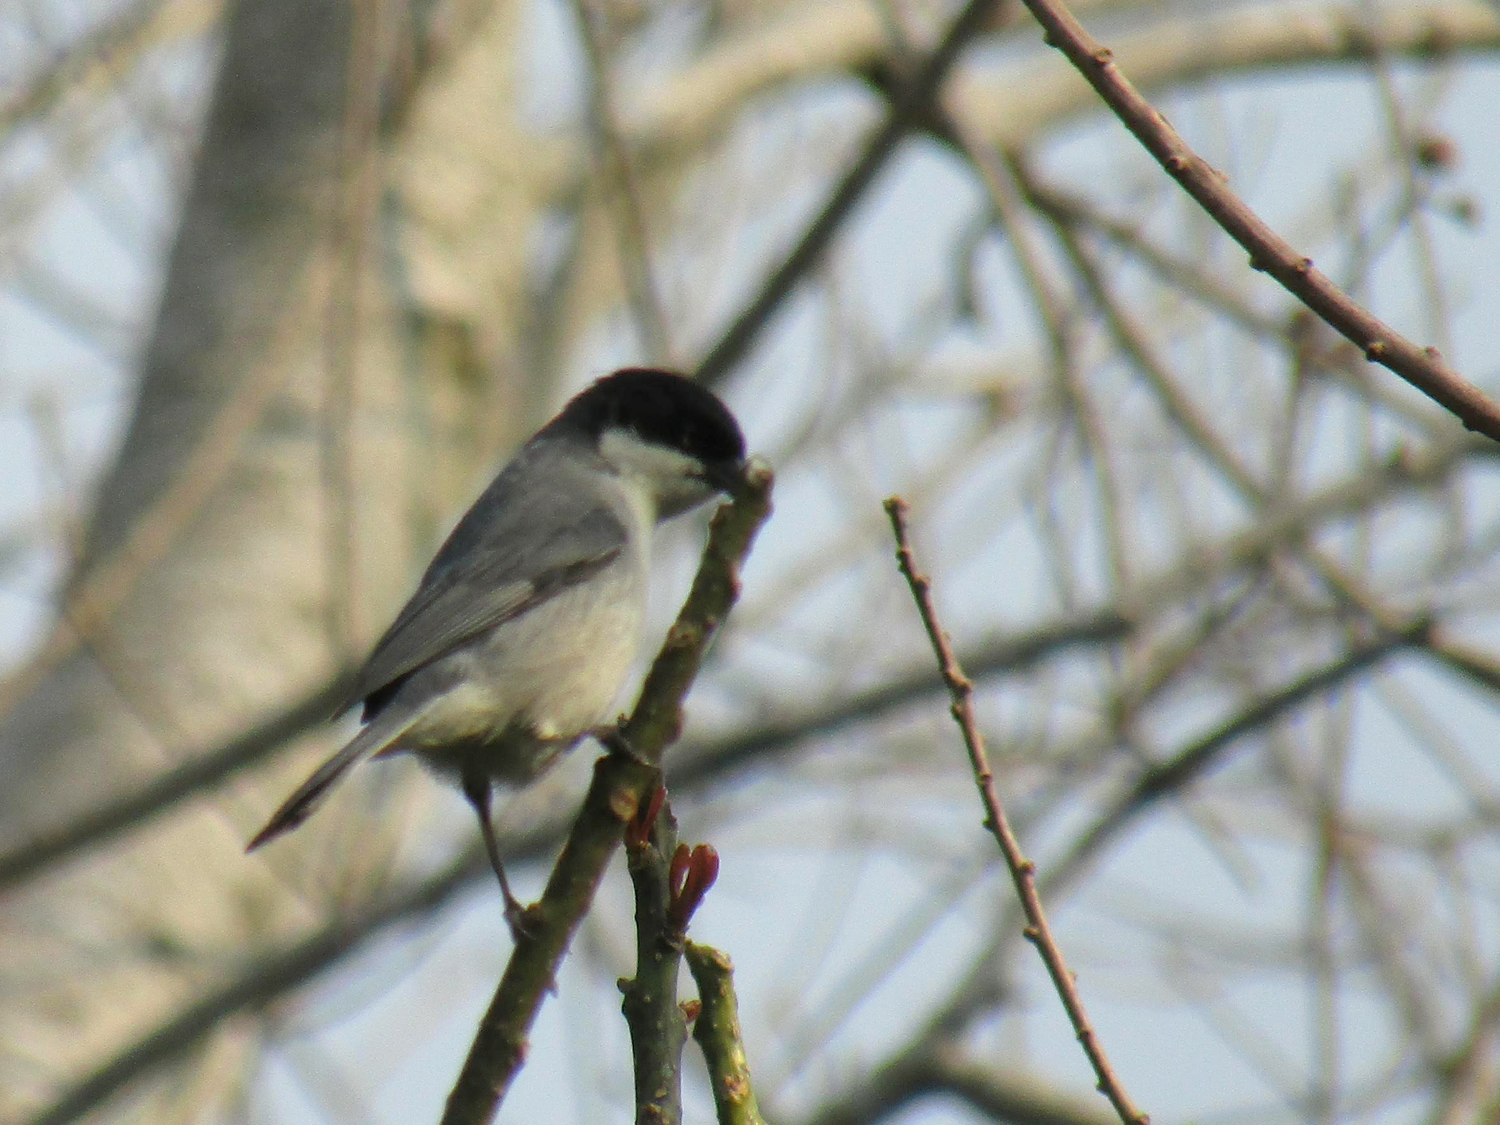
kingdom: Animalia
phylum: Chordata
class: Aves
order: Passeriformes
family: Thraupidae
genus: Microspingus
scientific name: Microspingus melanoleucus
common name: Black-capped warbling-finch
